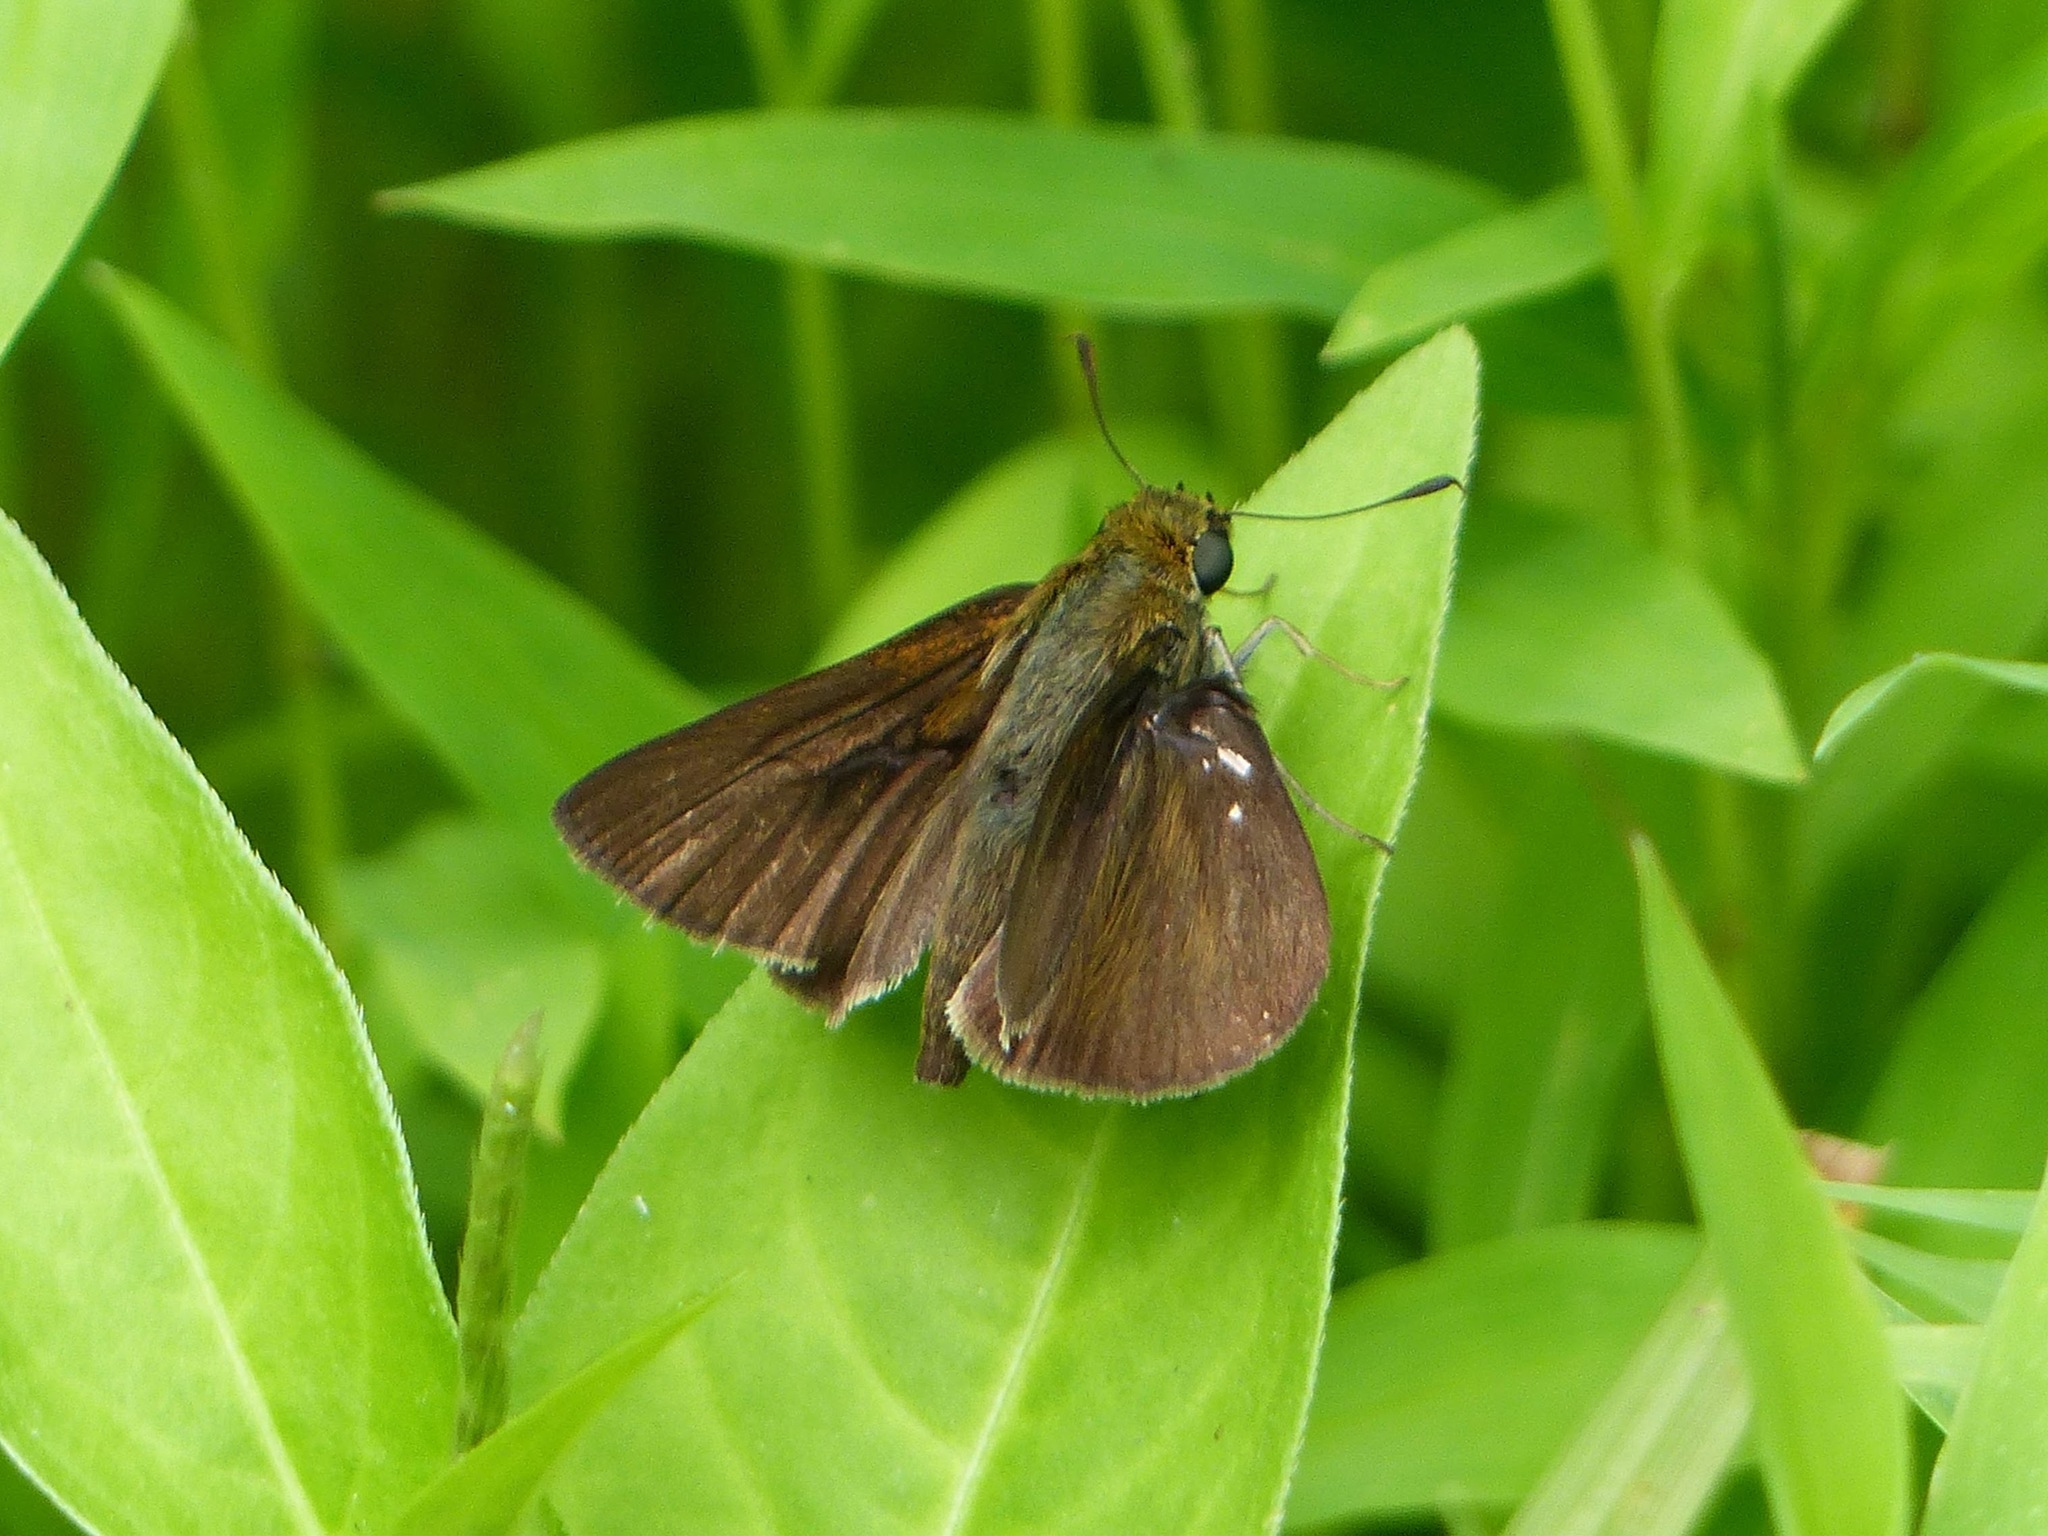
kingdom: Animalia
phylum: Arthropoda
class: Insecta
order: Lepidoptera
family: Hesperiidae
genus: Euphyes
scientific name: Euphyes vestris
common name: Dun skipper
